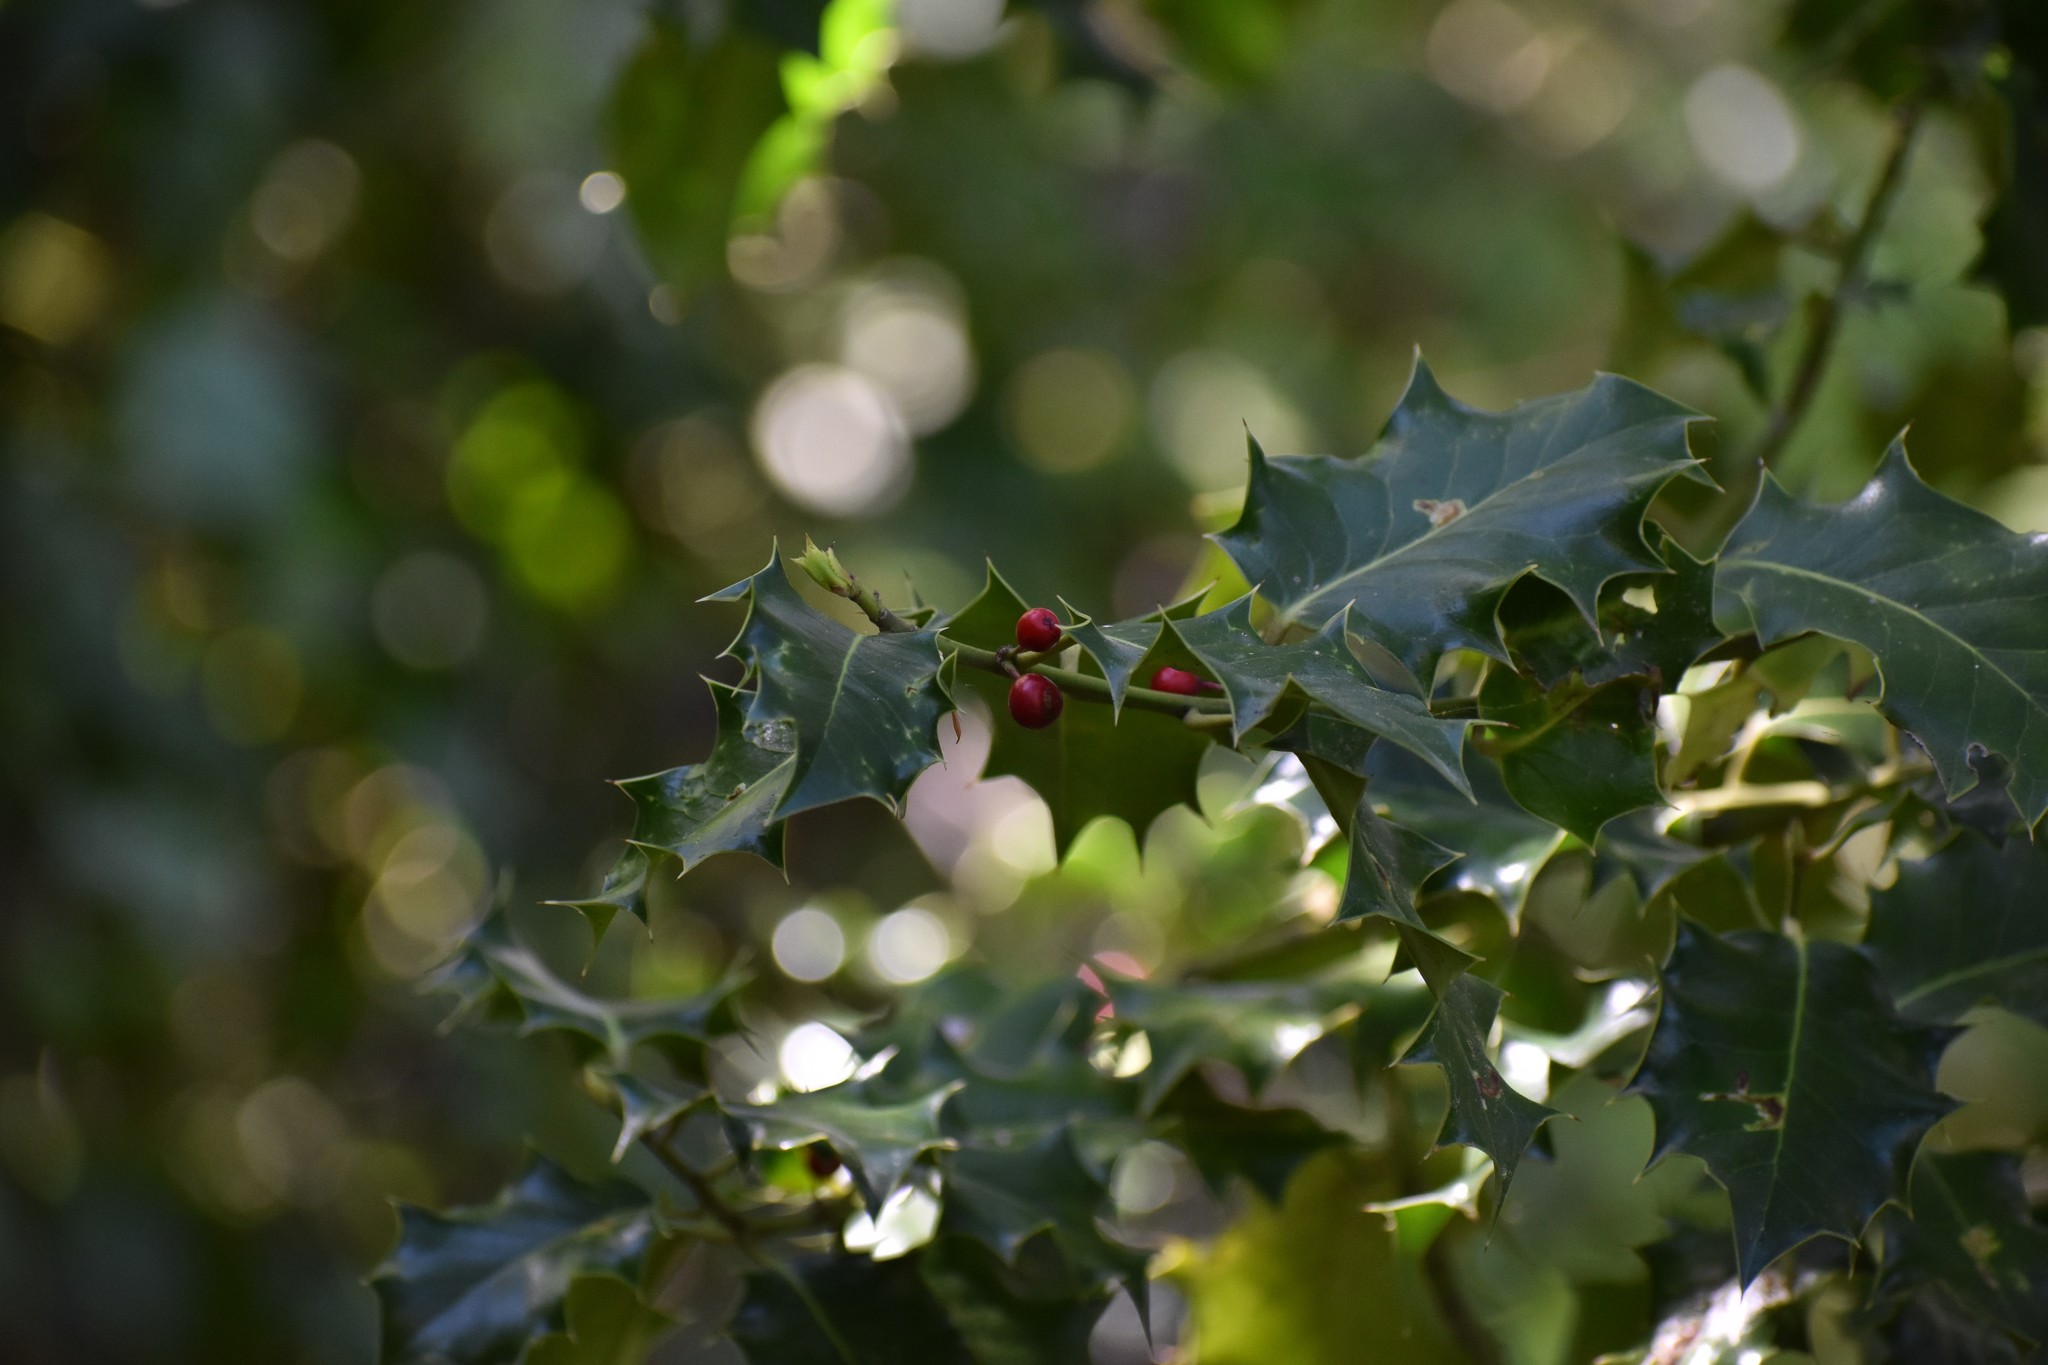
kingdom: Plantae
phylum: Tracheophyta
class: Magnoliopsida
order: Aquifoliales
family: Aquifoliaceae
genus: Ilex
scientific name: Ilex aquifolium
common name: English holly
